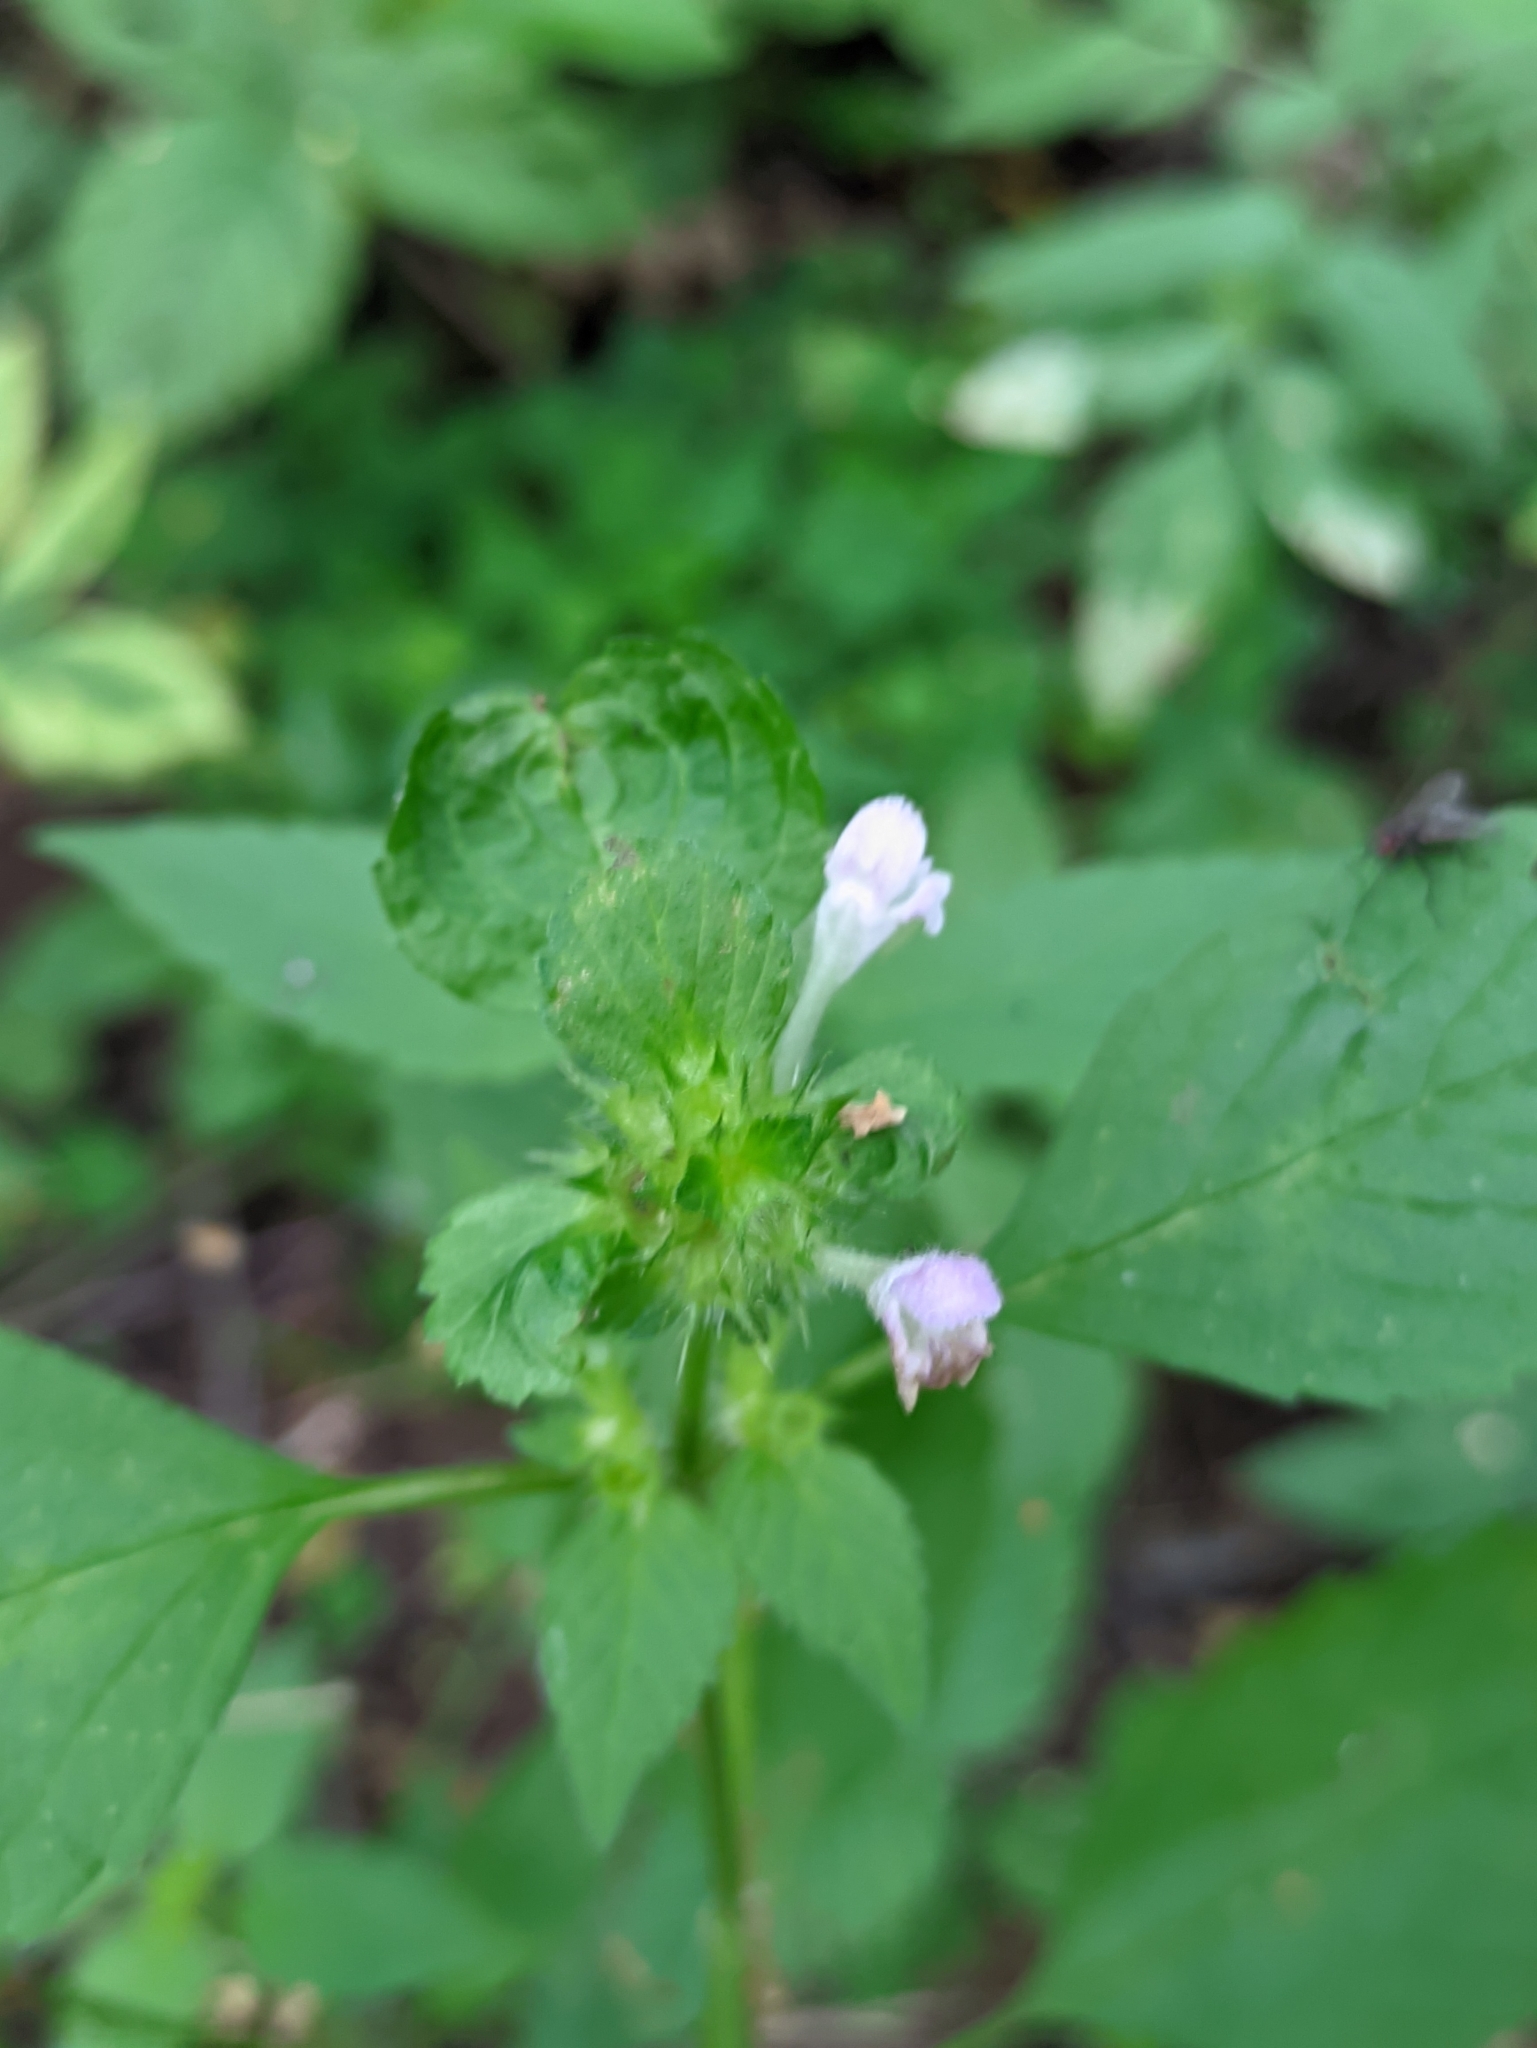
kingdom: Plantae
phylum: Tracheophyta
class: Magnoliopsida
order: Lamiales
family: Lamiaceae
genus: Galeopsis
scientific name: Galeopsis bifida
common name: Bifid hemp-nettle
